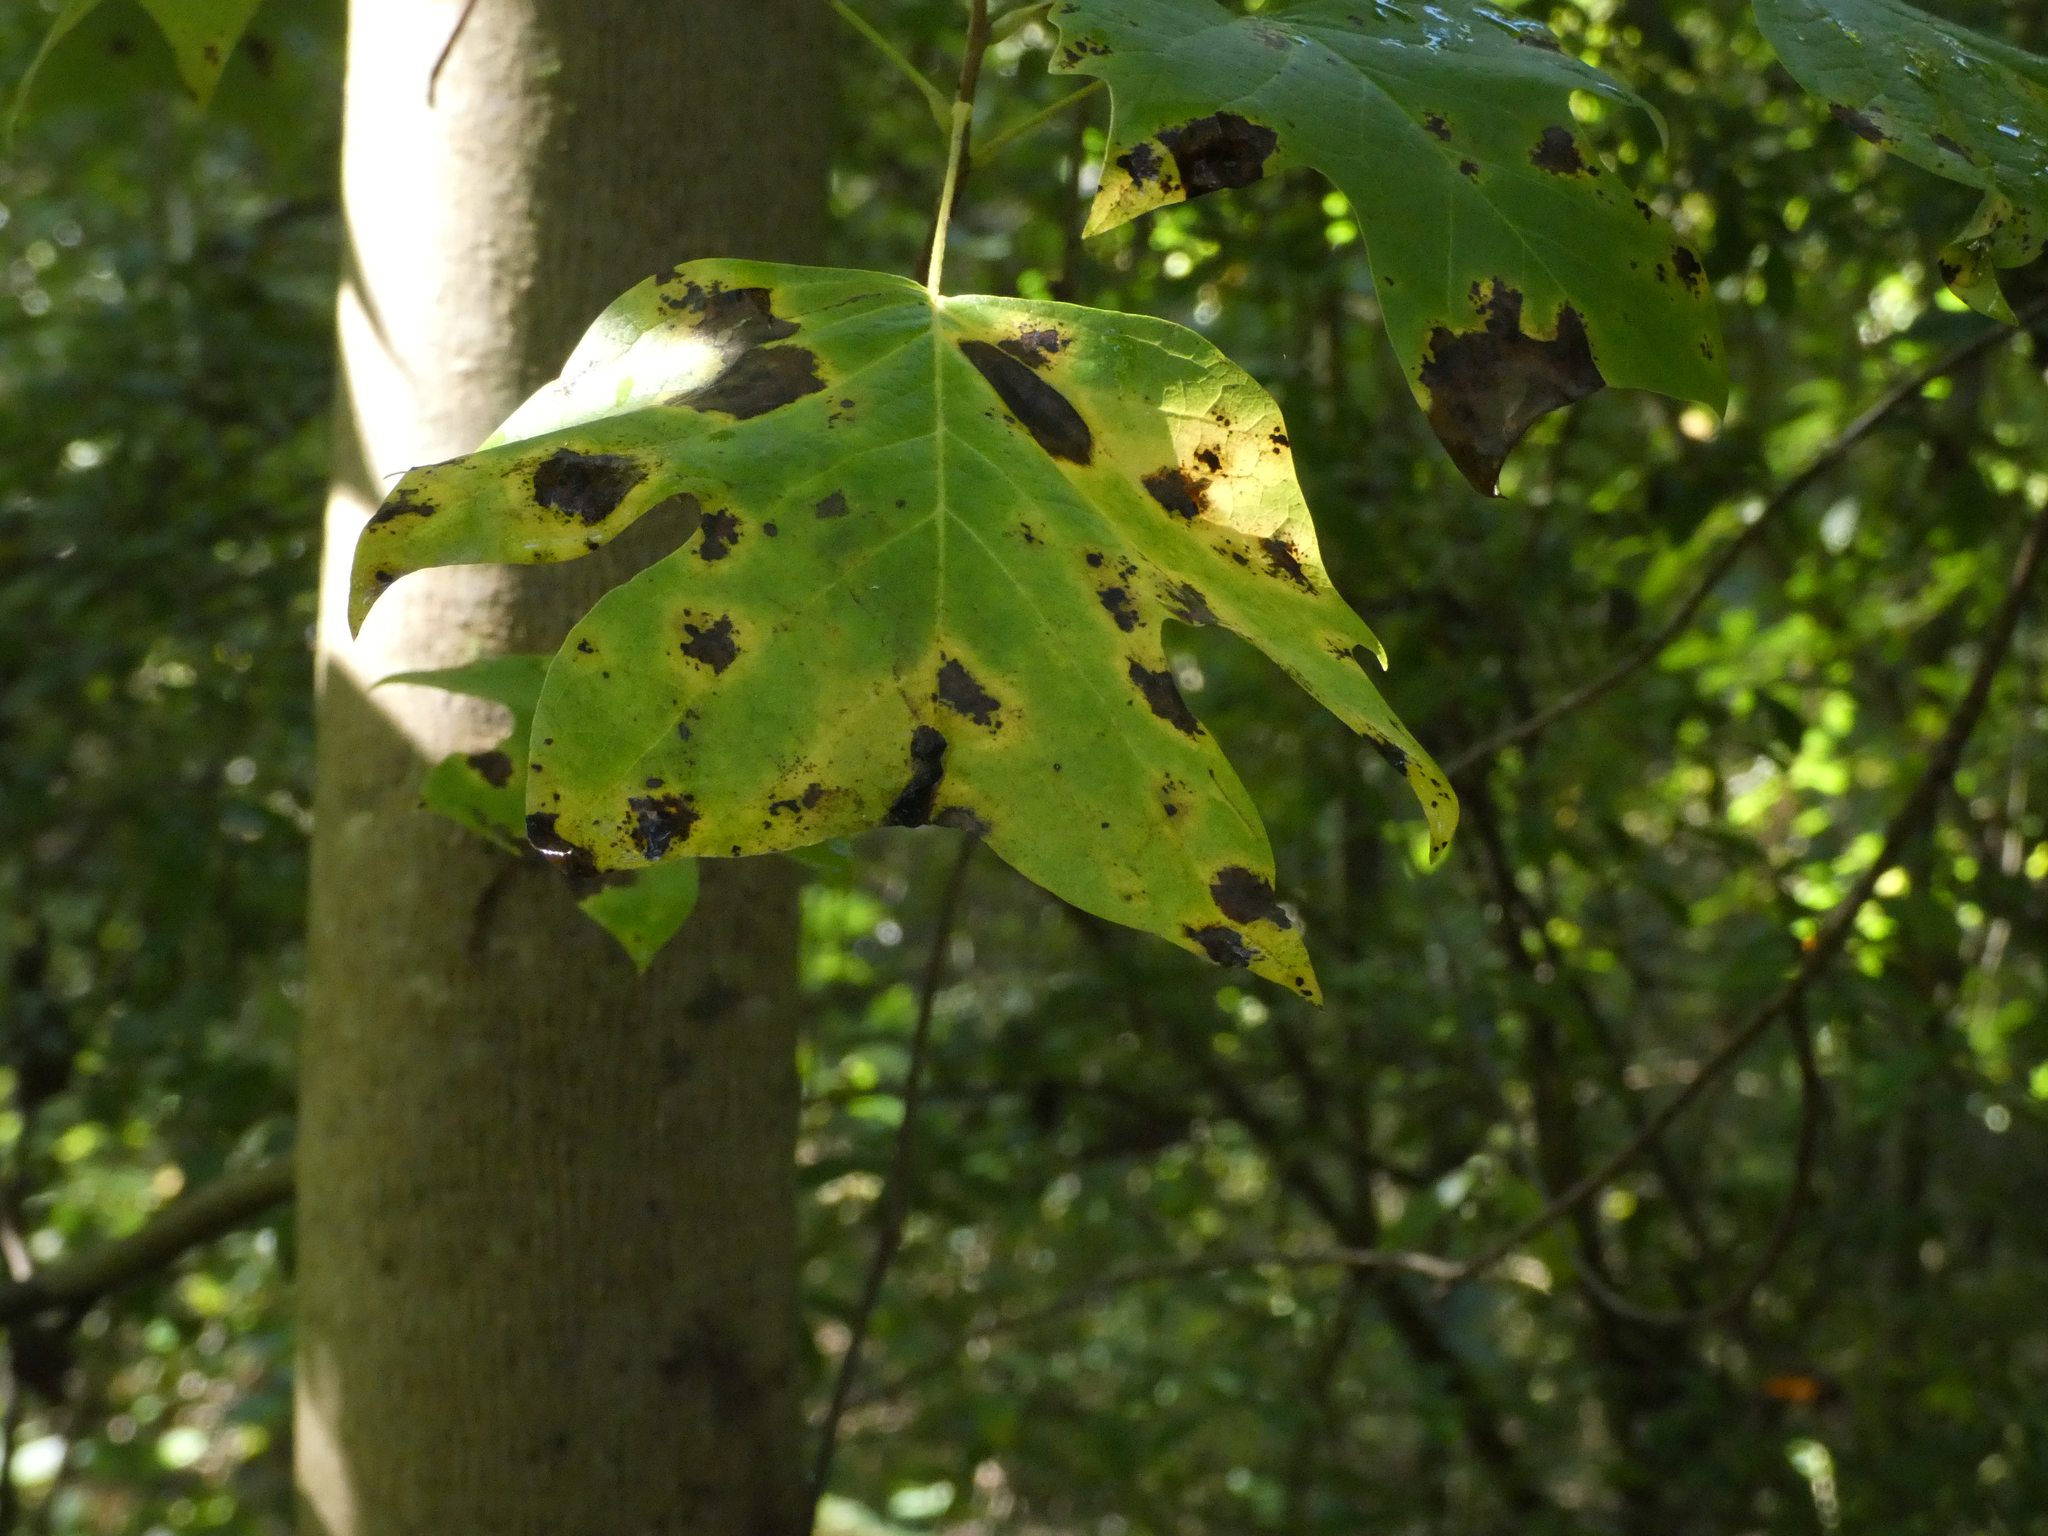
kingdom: Plantae
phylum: Tracheophyta
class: Magnoliopsida
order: Magnoliales
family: Magnoliaceae
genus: Liriodendron
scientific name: Liriodendron tulipifera
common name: Tulip tree
